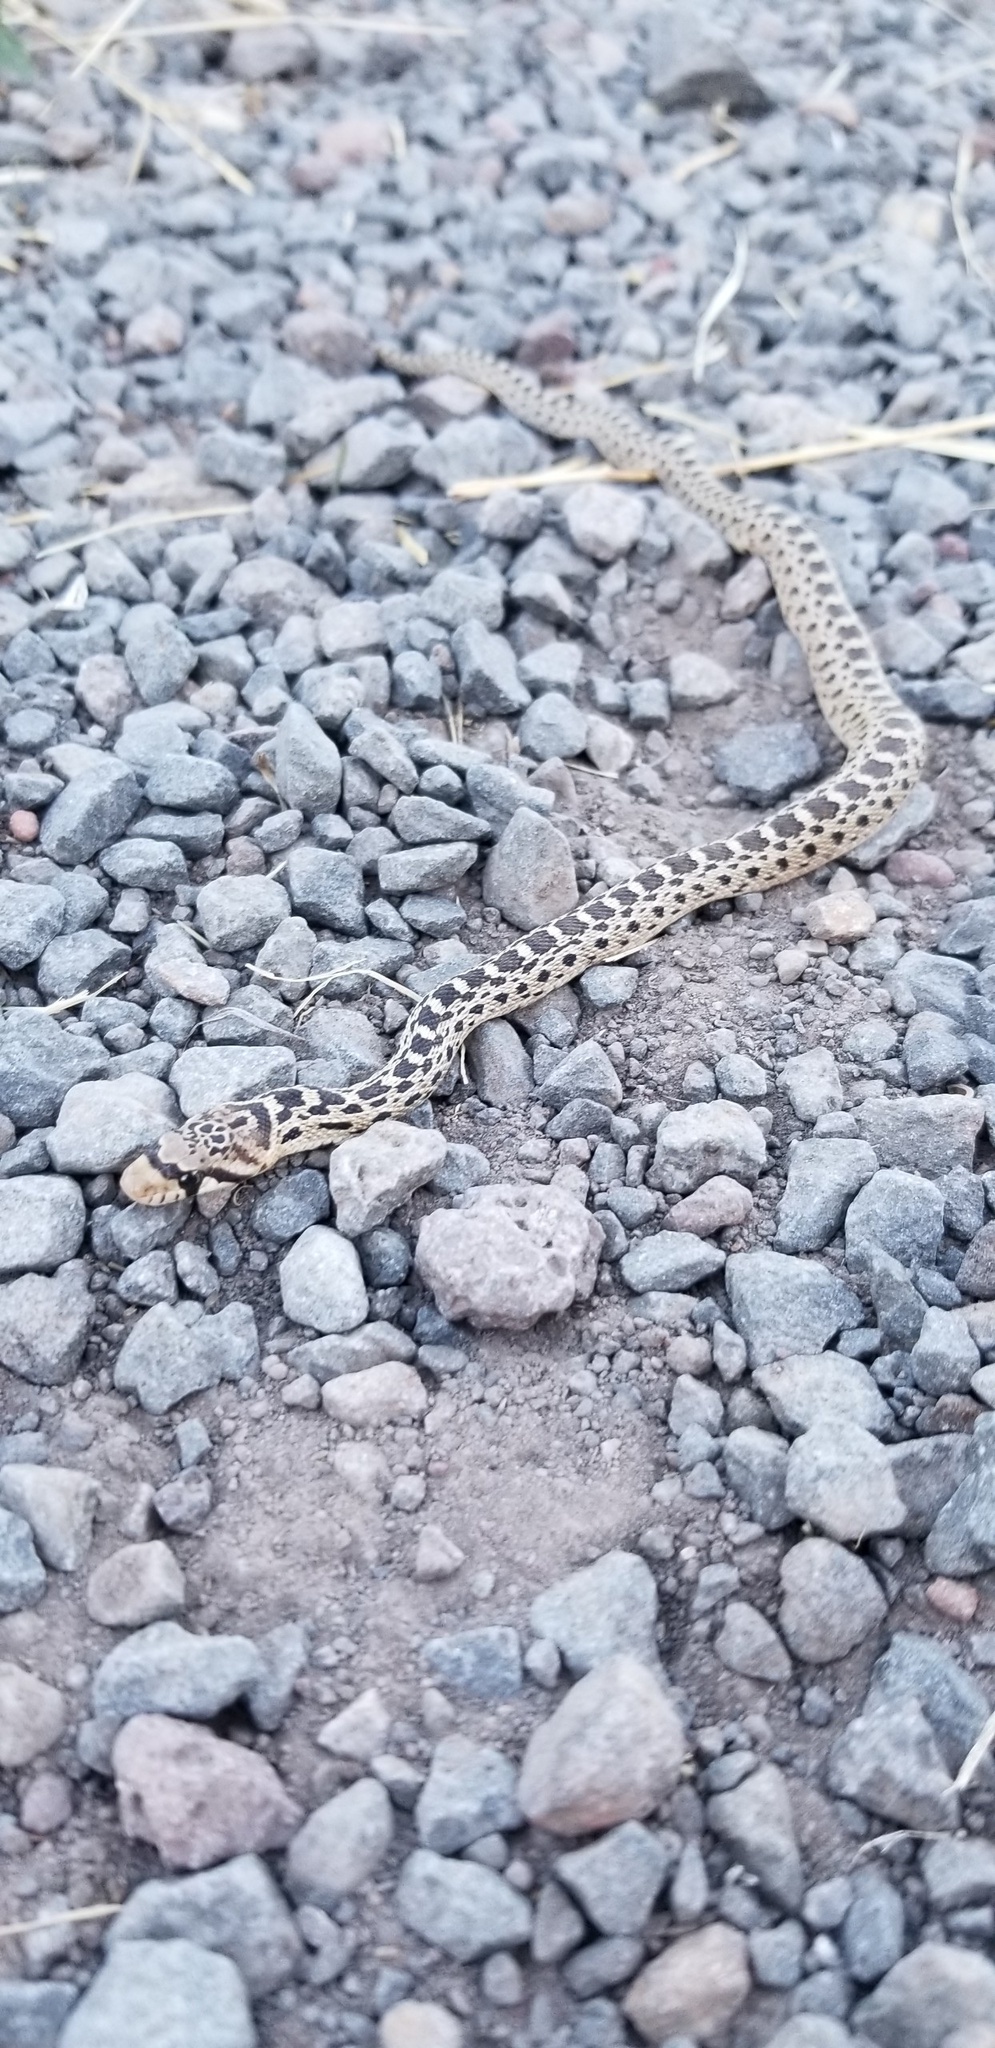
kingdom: Animalia
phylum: Chordata
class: Squamata
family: Colubridae
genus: Pituophis
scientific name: Pituophis catenifer
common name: Gopher snake
